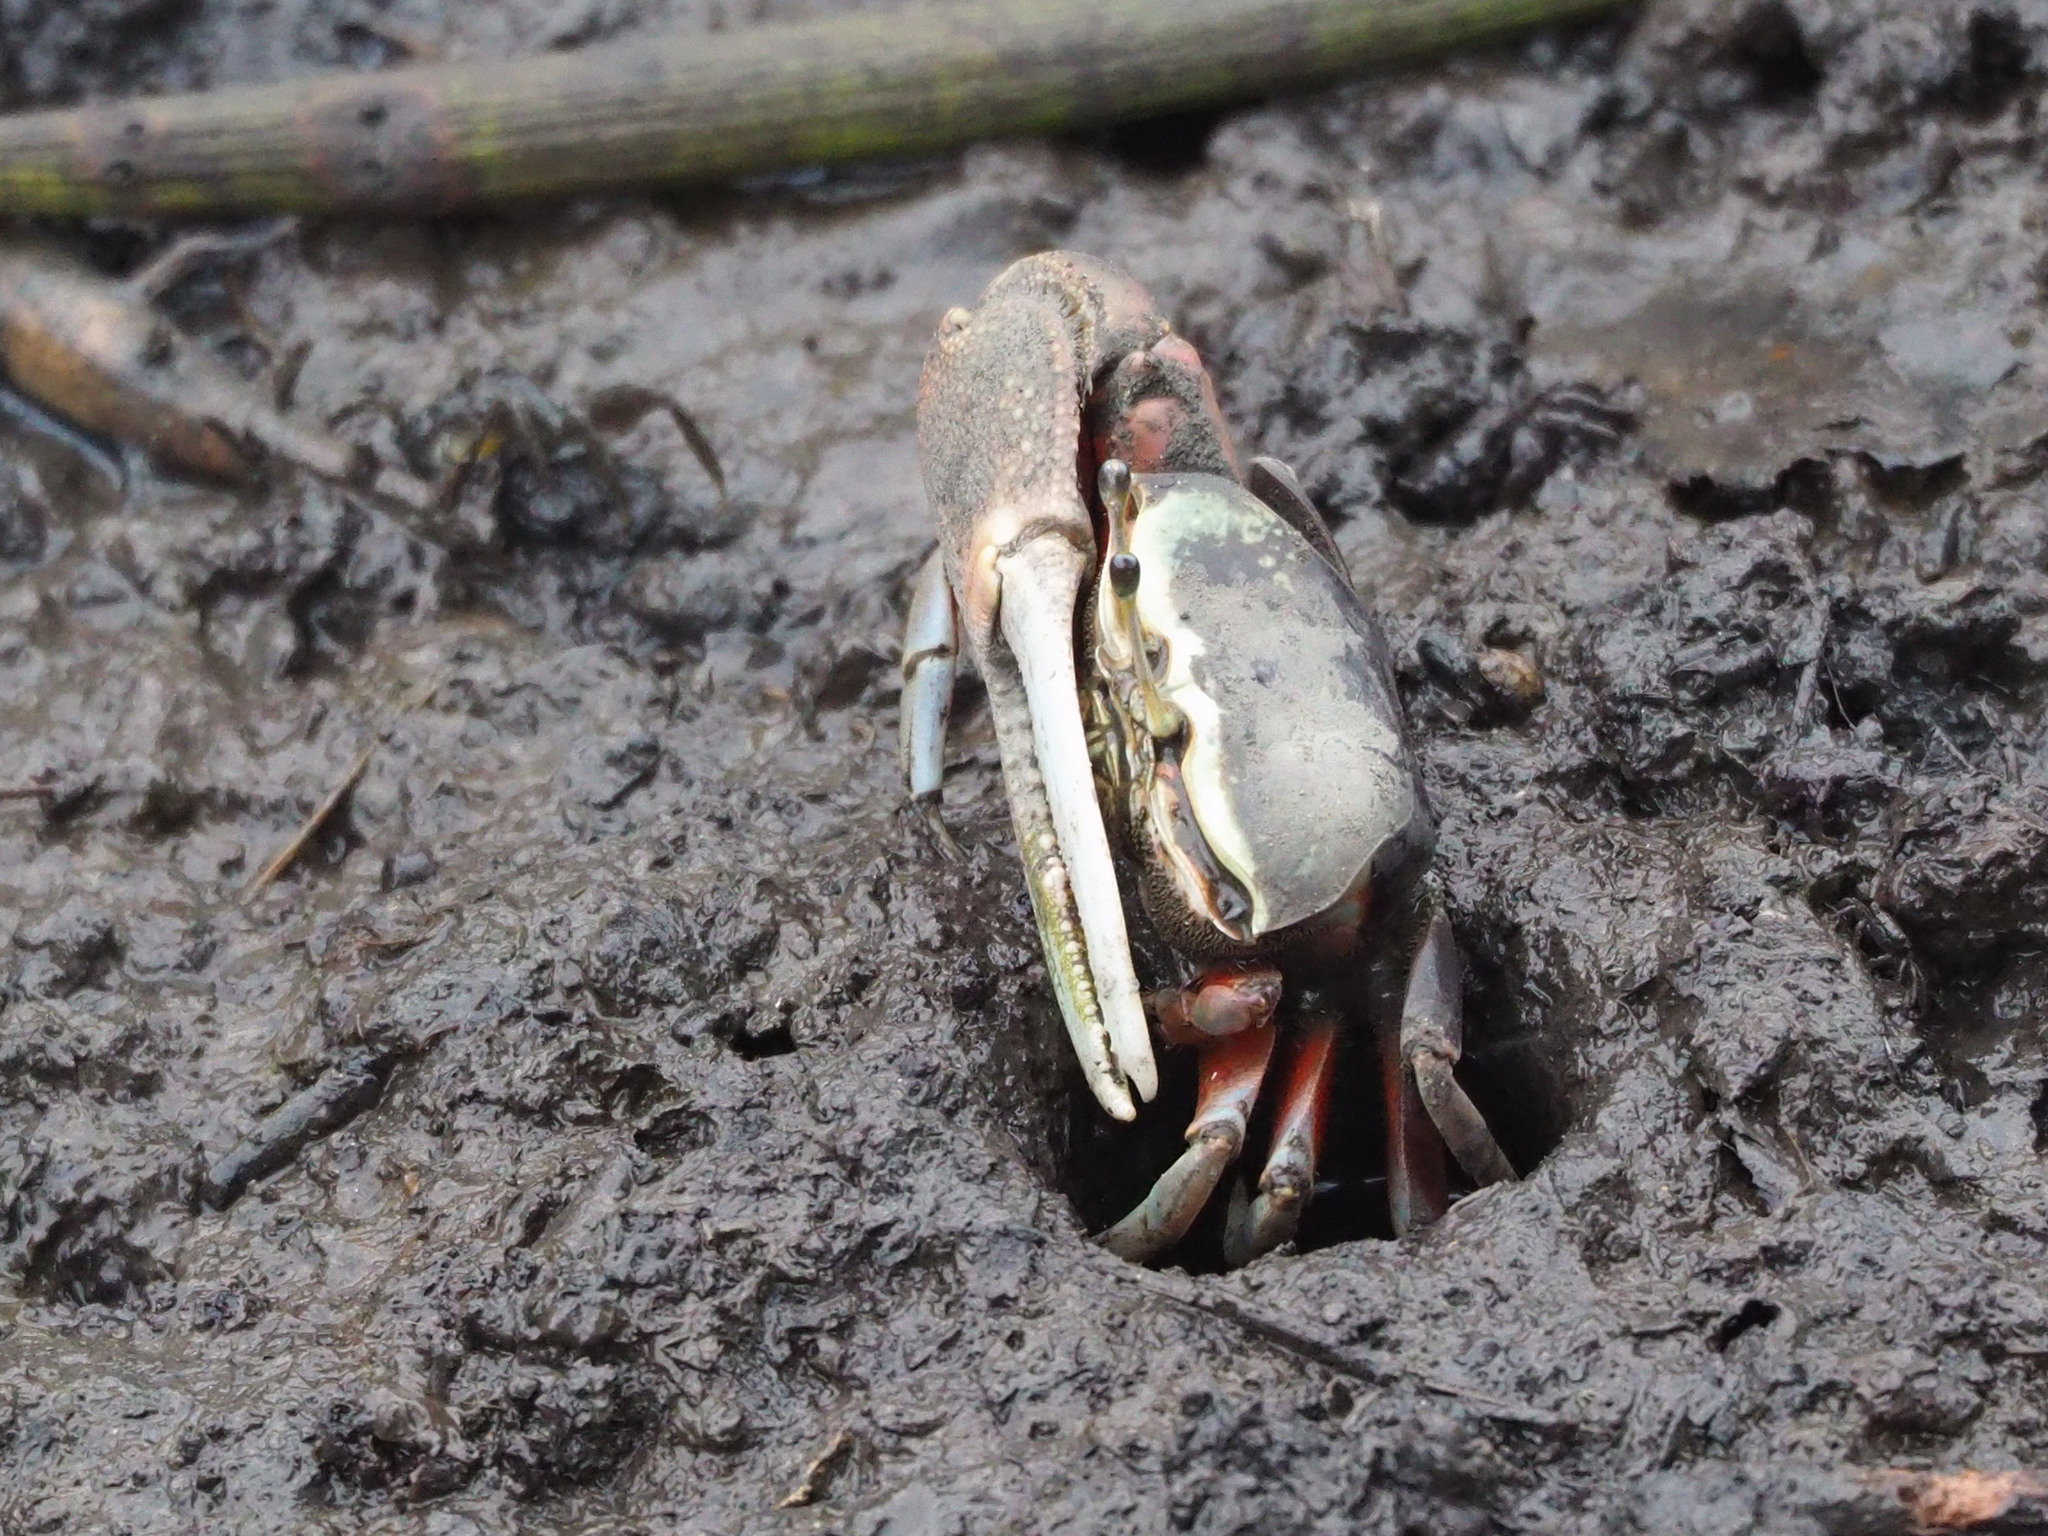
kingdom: Animalia
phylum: Arthropoda
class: Malacostraca
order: Decapoda
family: Ocypodidae
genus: Tubuca
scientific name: Tubuca arcuata
